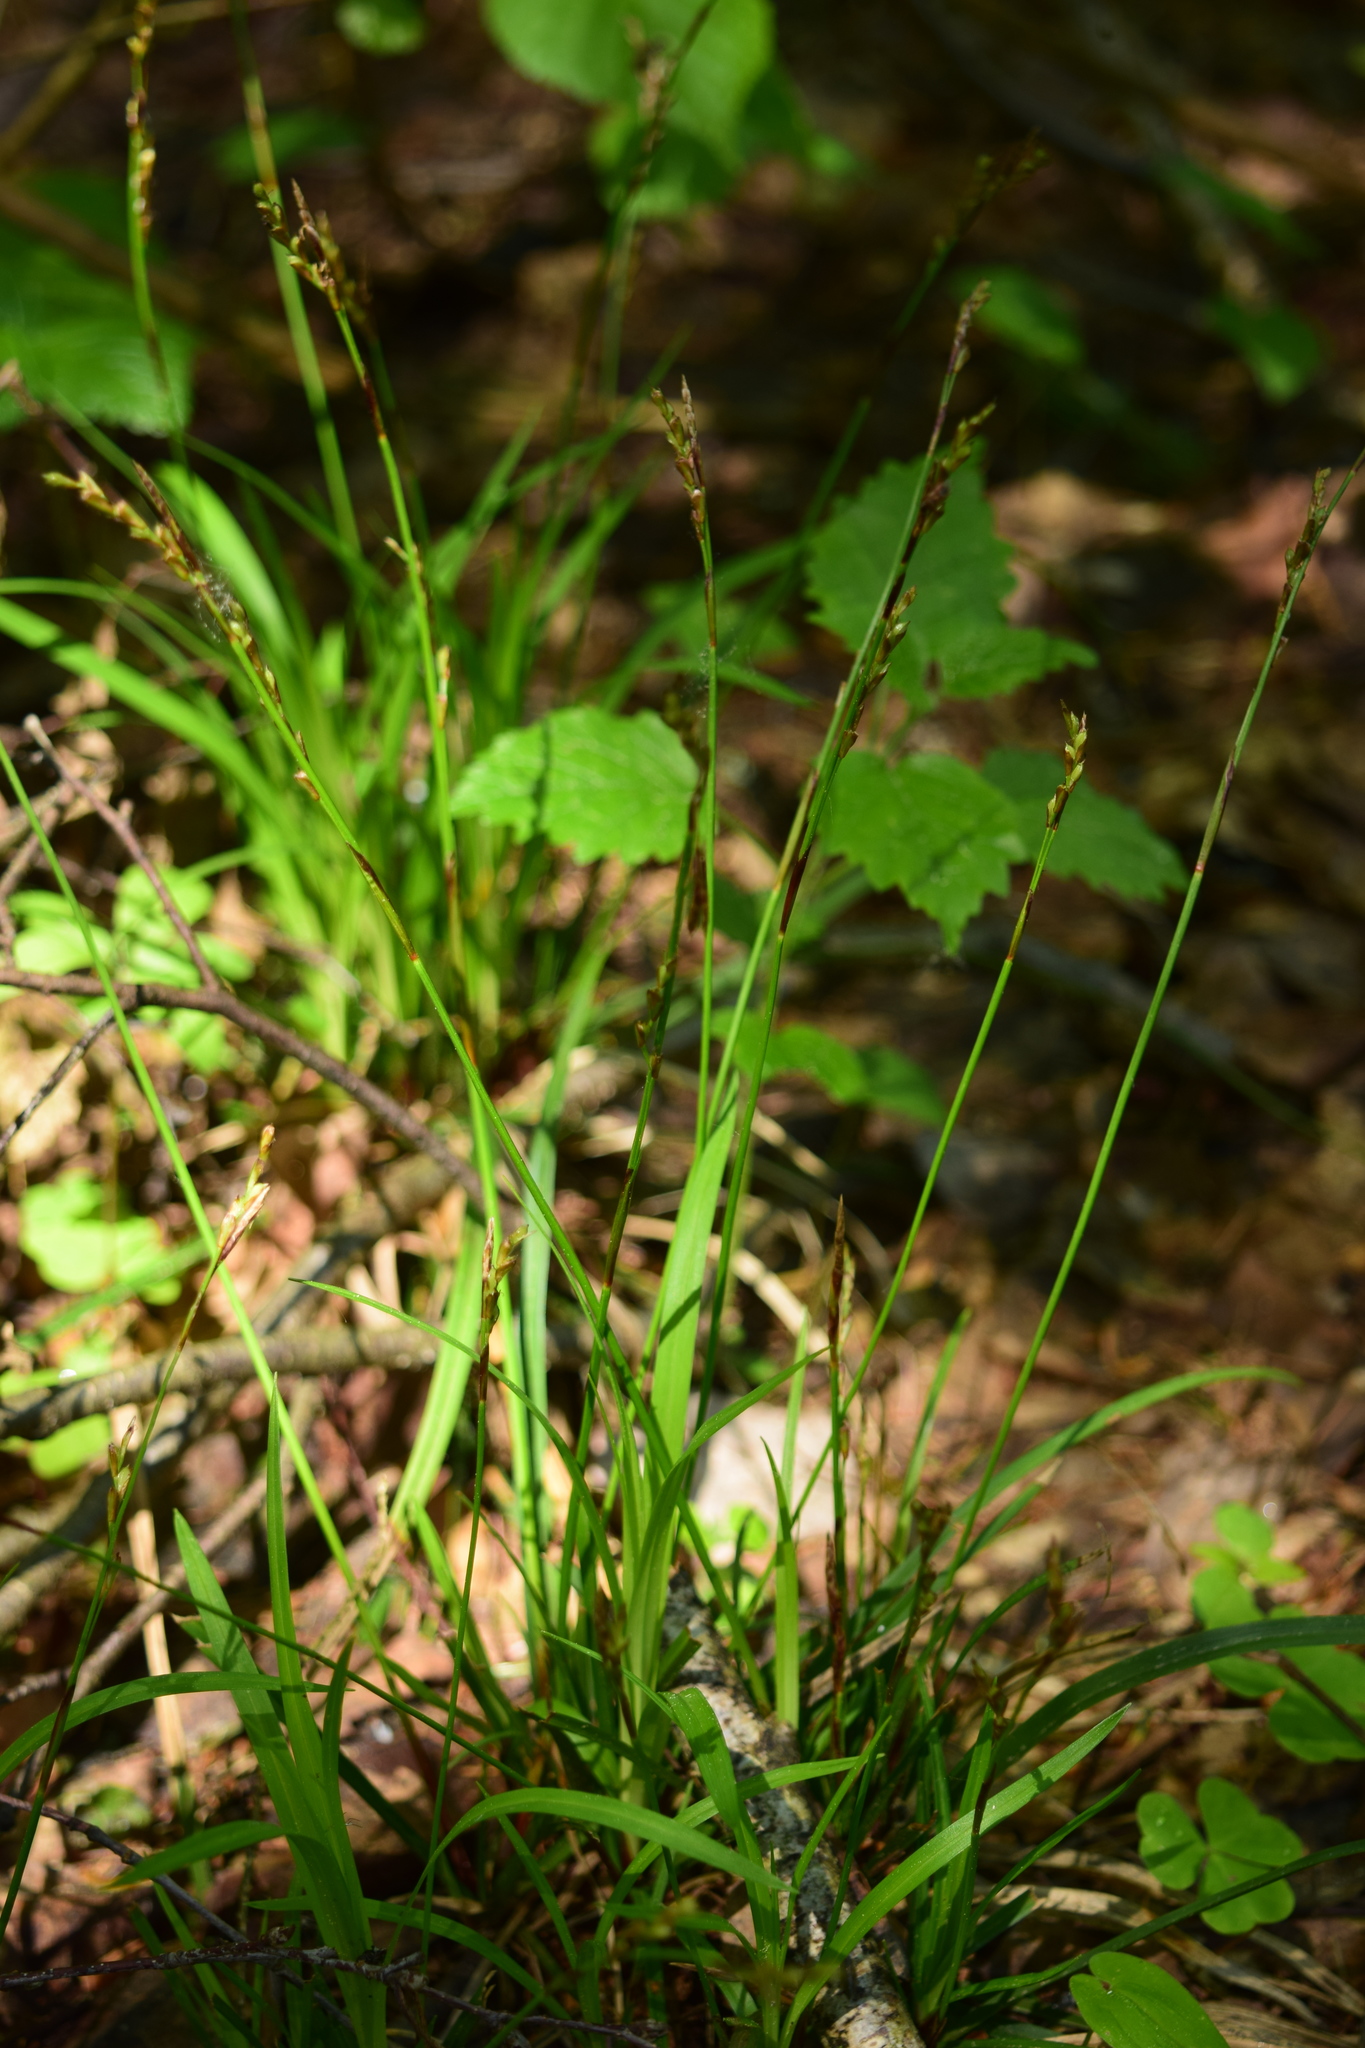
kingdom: Plantae
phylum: Tracheophyta
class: Liliopsida
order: Poales
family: Cyperaceae
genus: Carex
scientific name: Carex digitata
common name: Fingered sedge
